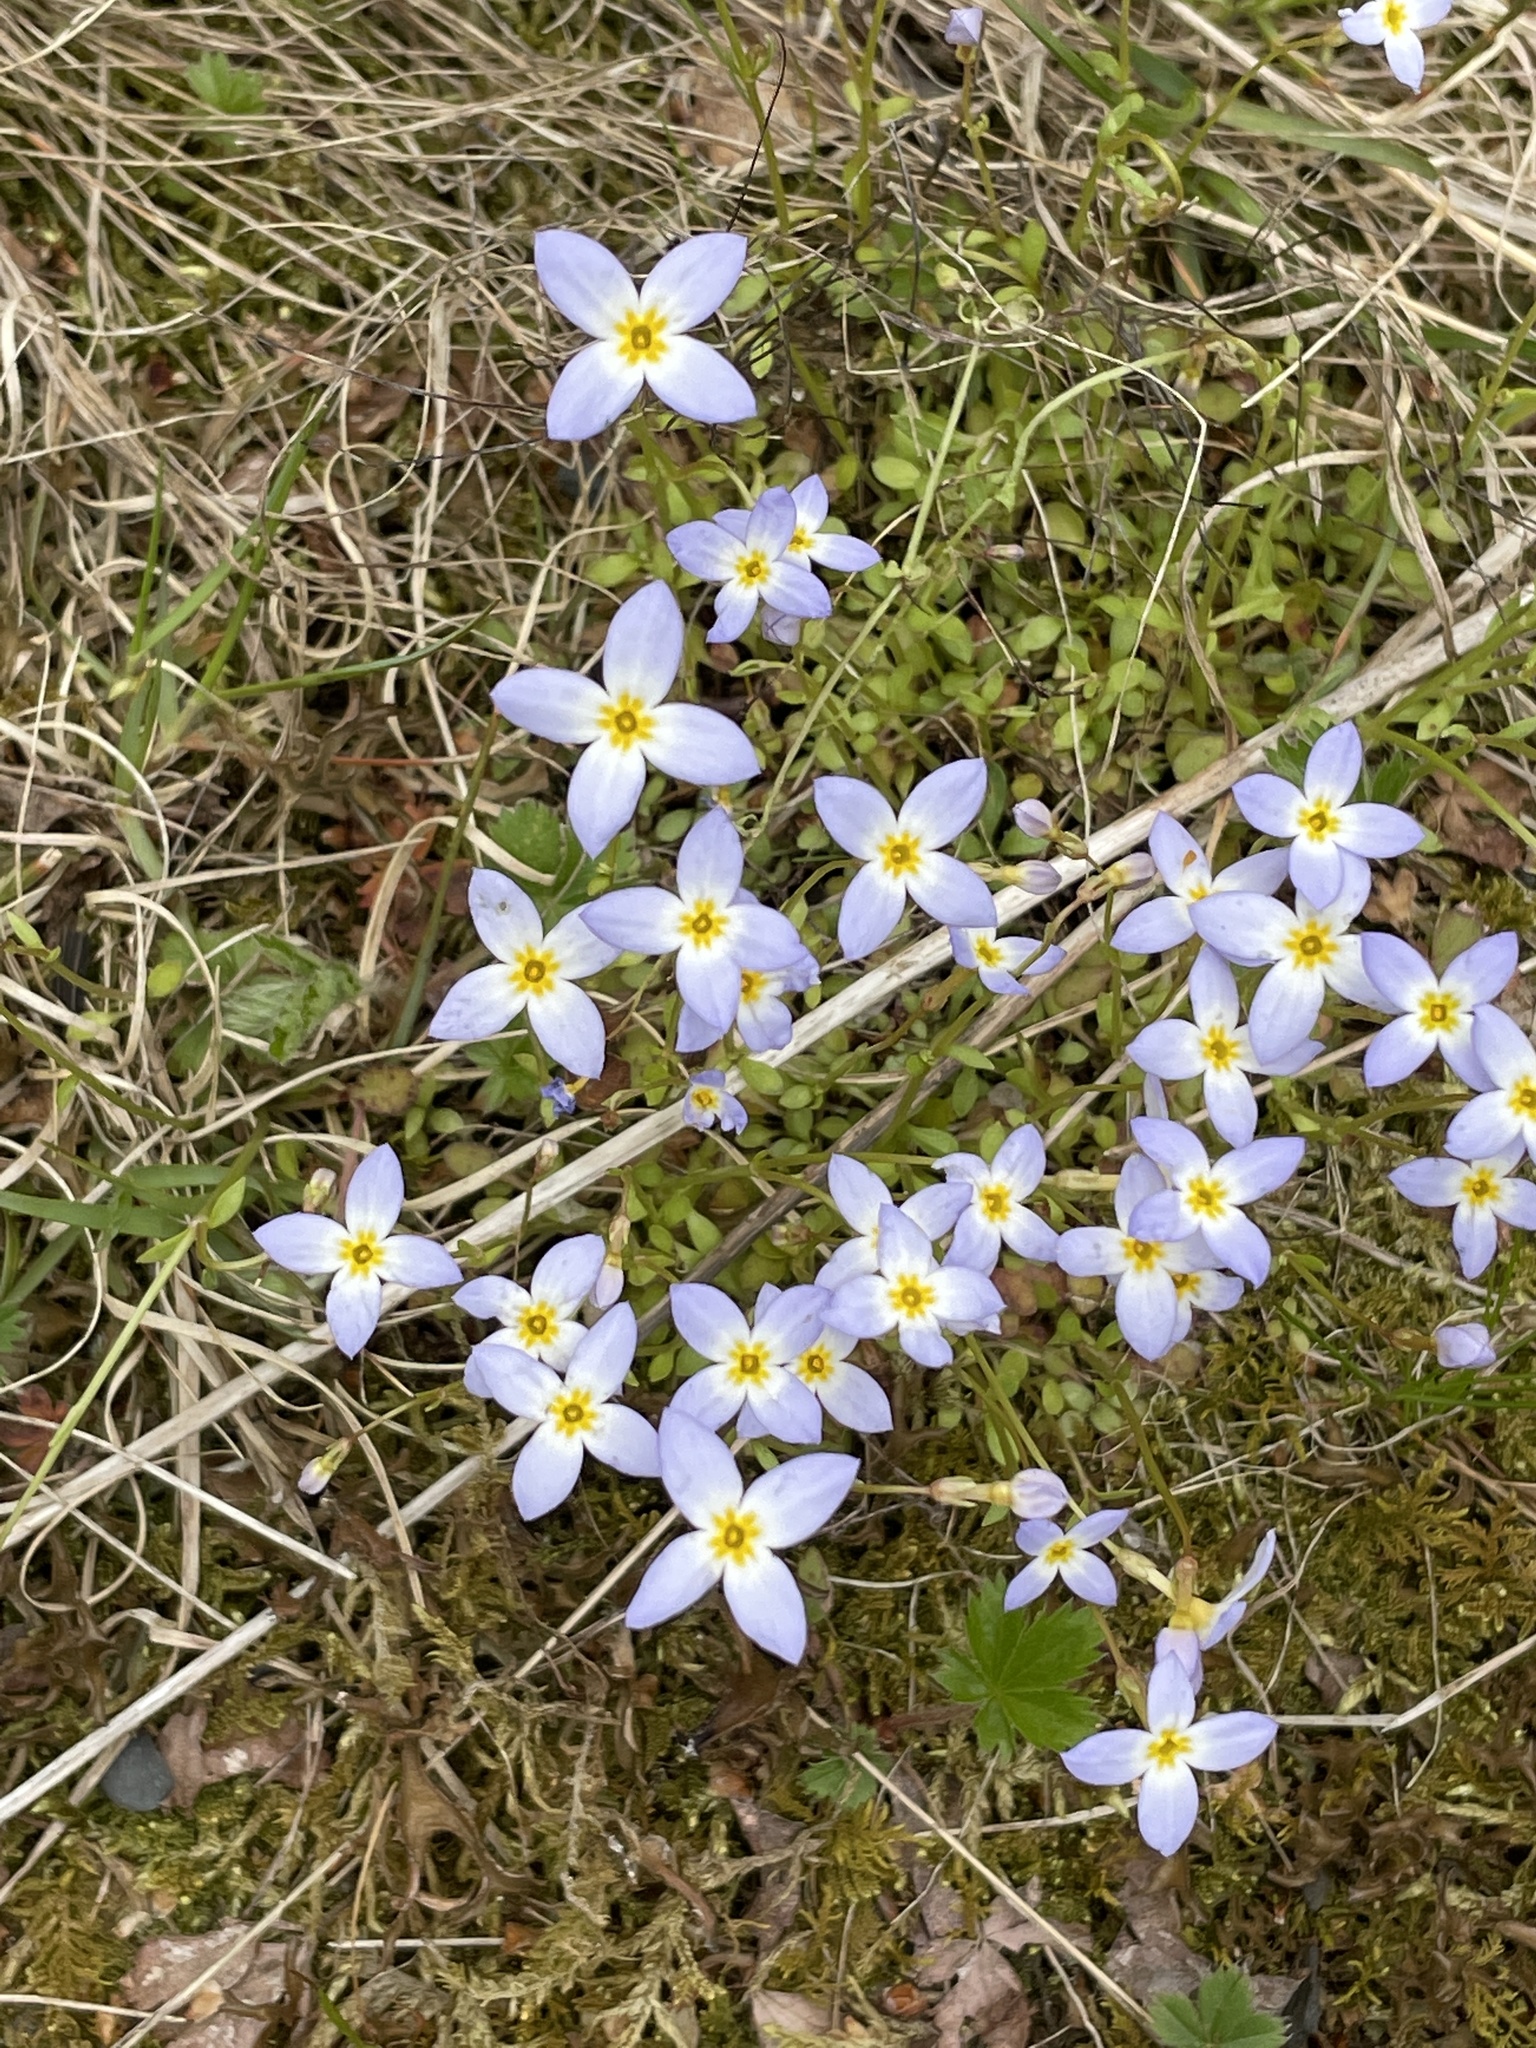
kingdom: Plantae
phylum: Tracheophyta
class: Magnoliopsida
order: Gentianales
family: Rubiaceae
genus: Houstonia
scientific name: Houstonia caerulea
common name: Bluets
